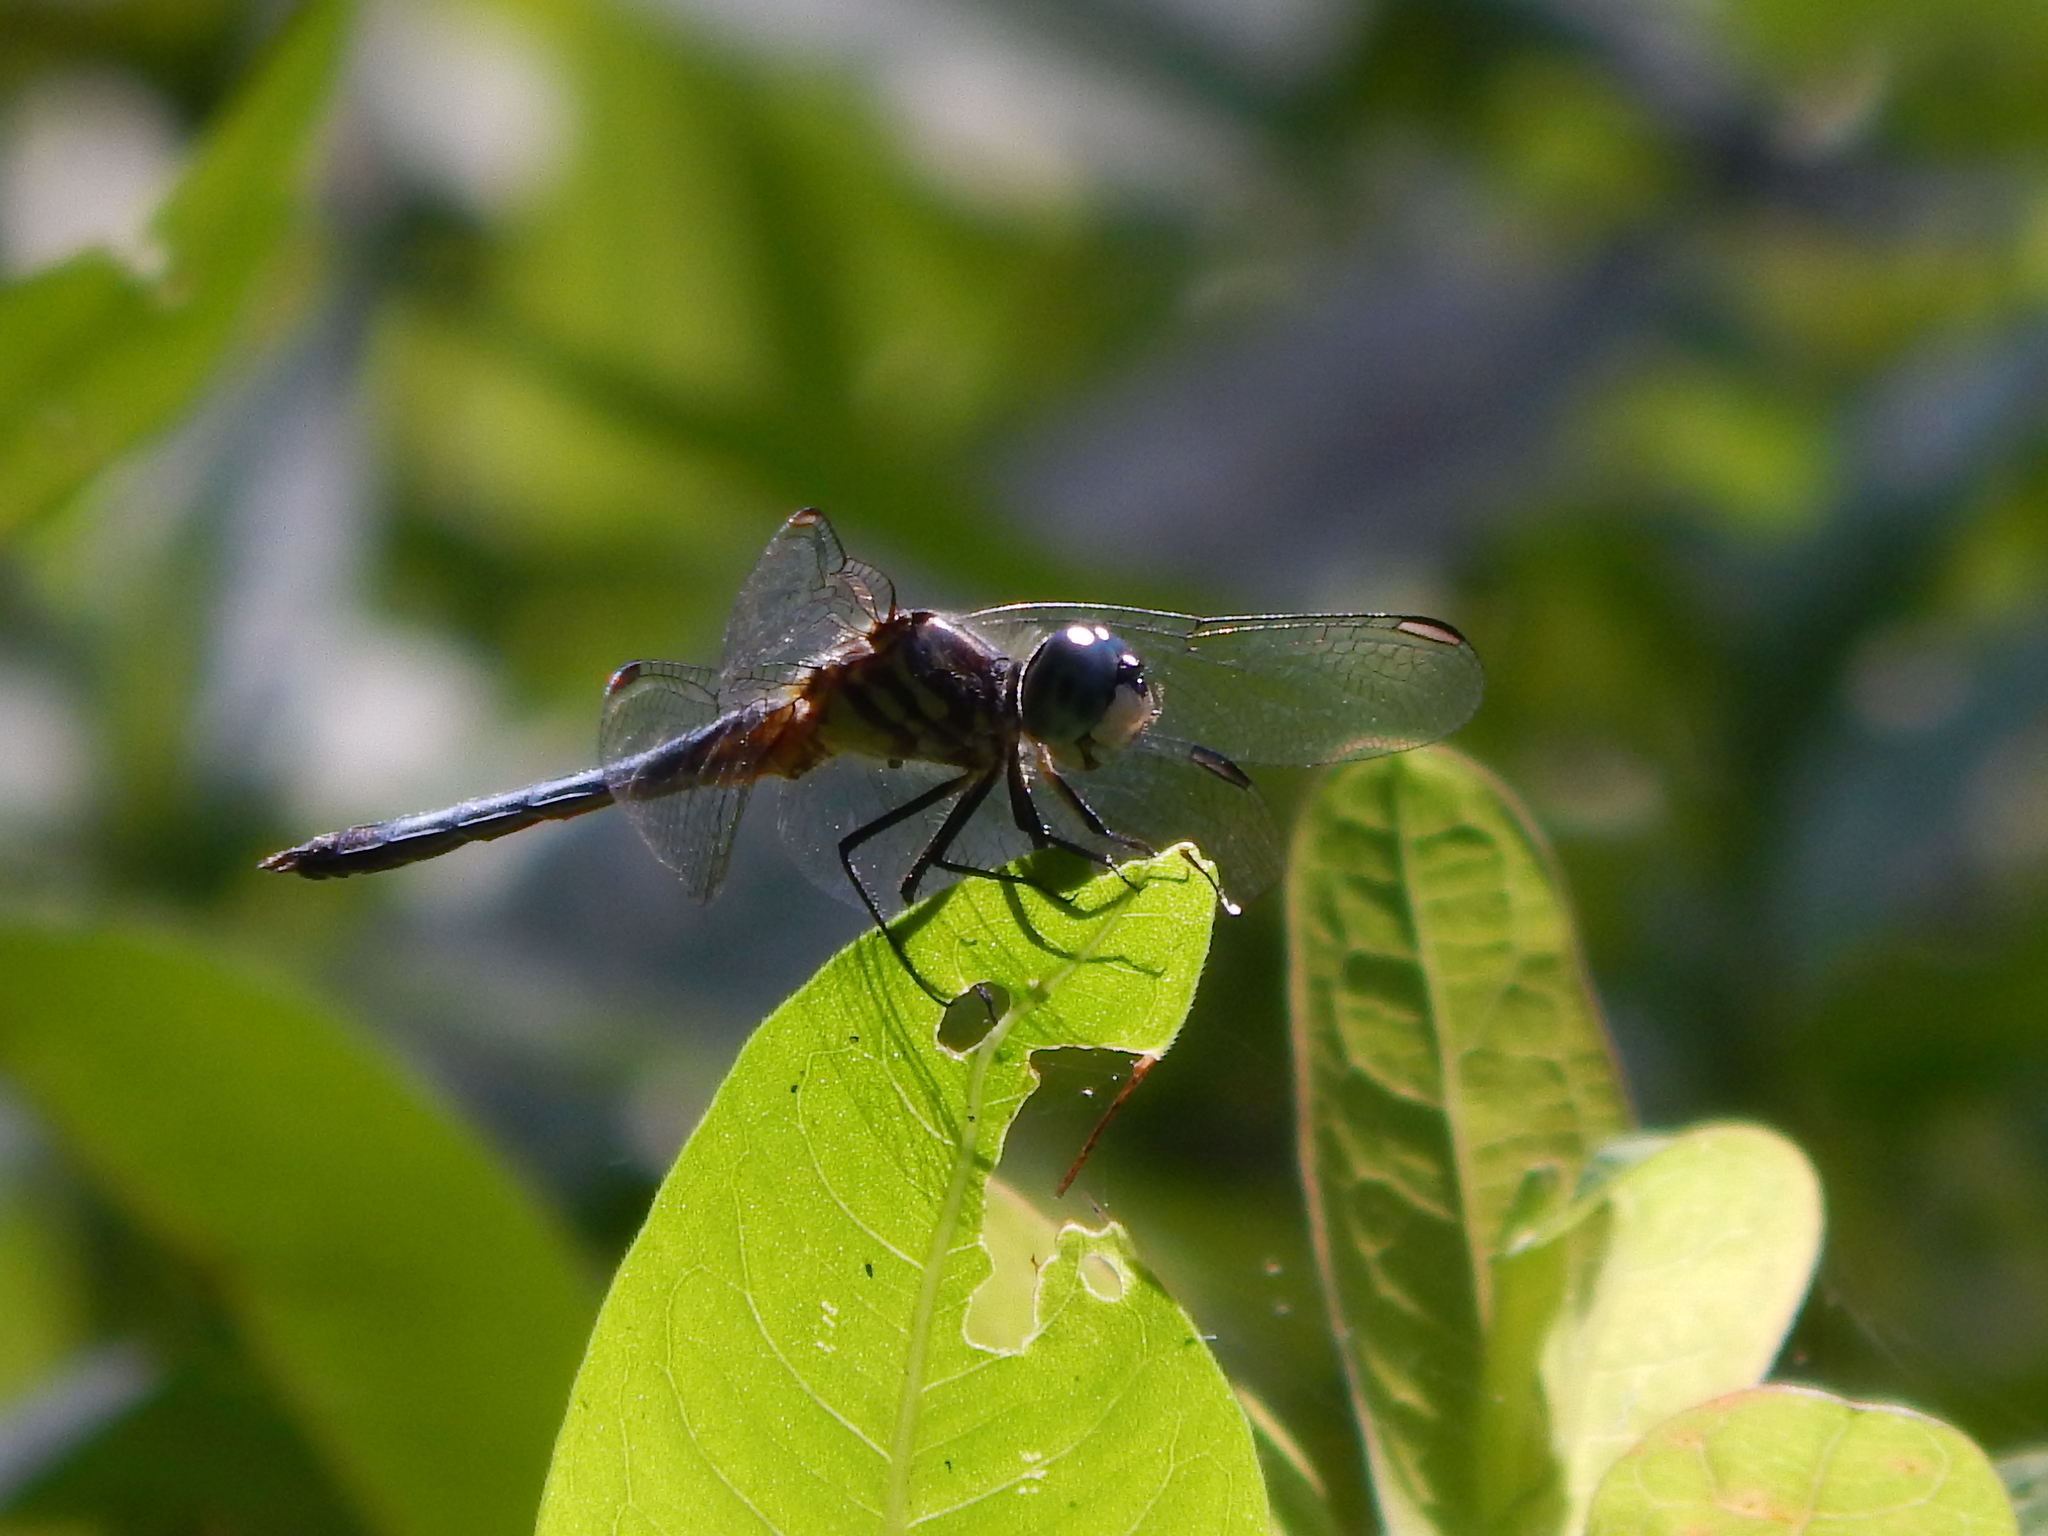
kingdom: Animalia
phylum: Arthropoda
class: Insecta
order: Odonata
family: Libellulidae
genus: Pachydiplax
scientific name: Pachydiplax longipennis
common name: Blue dasher
